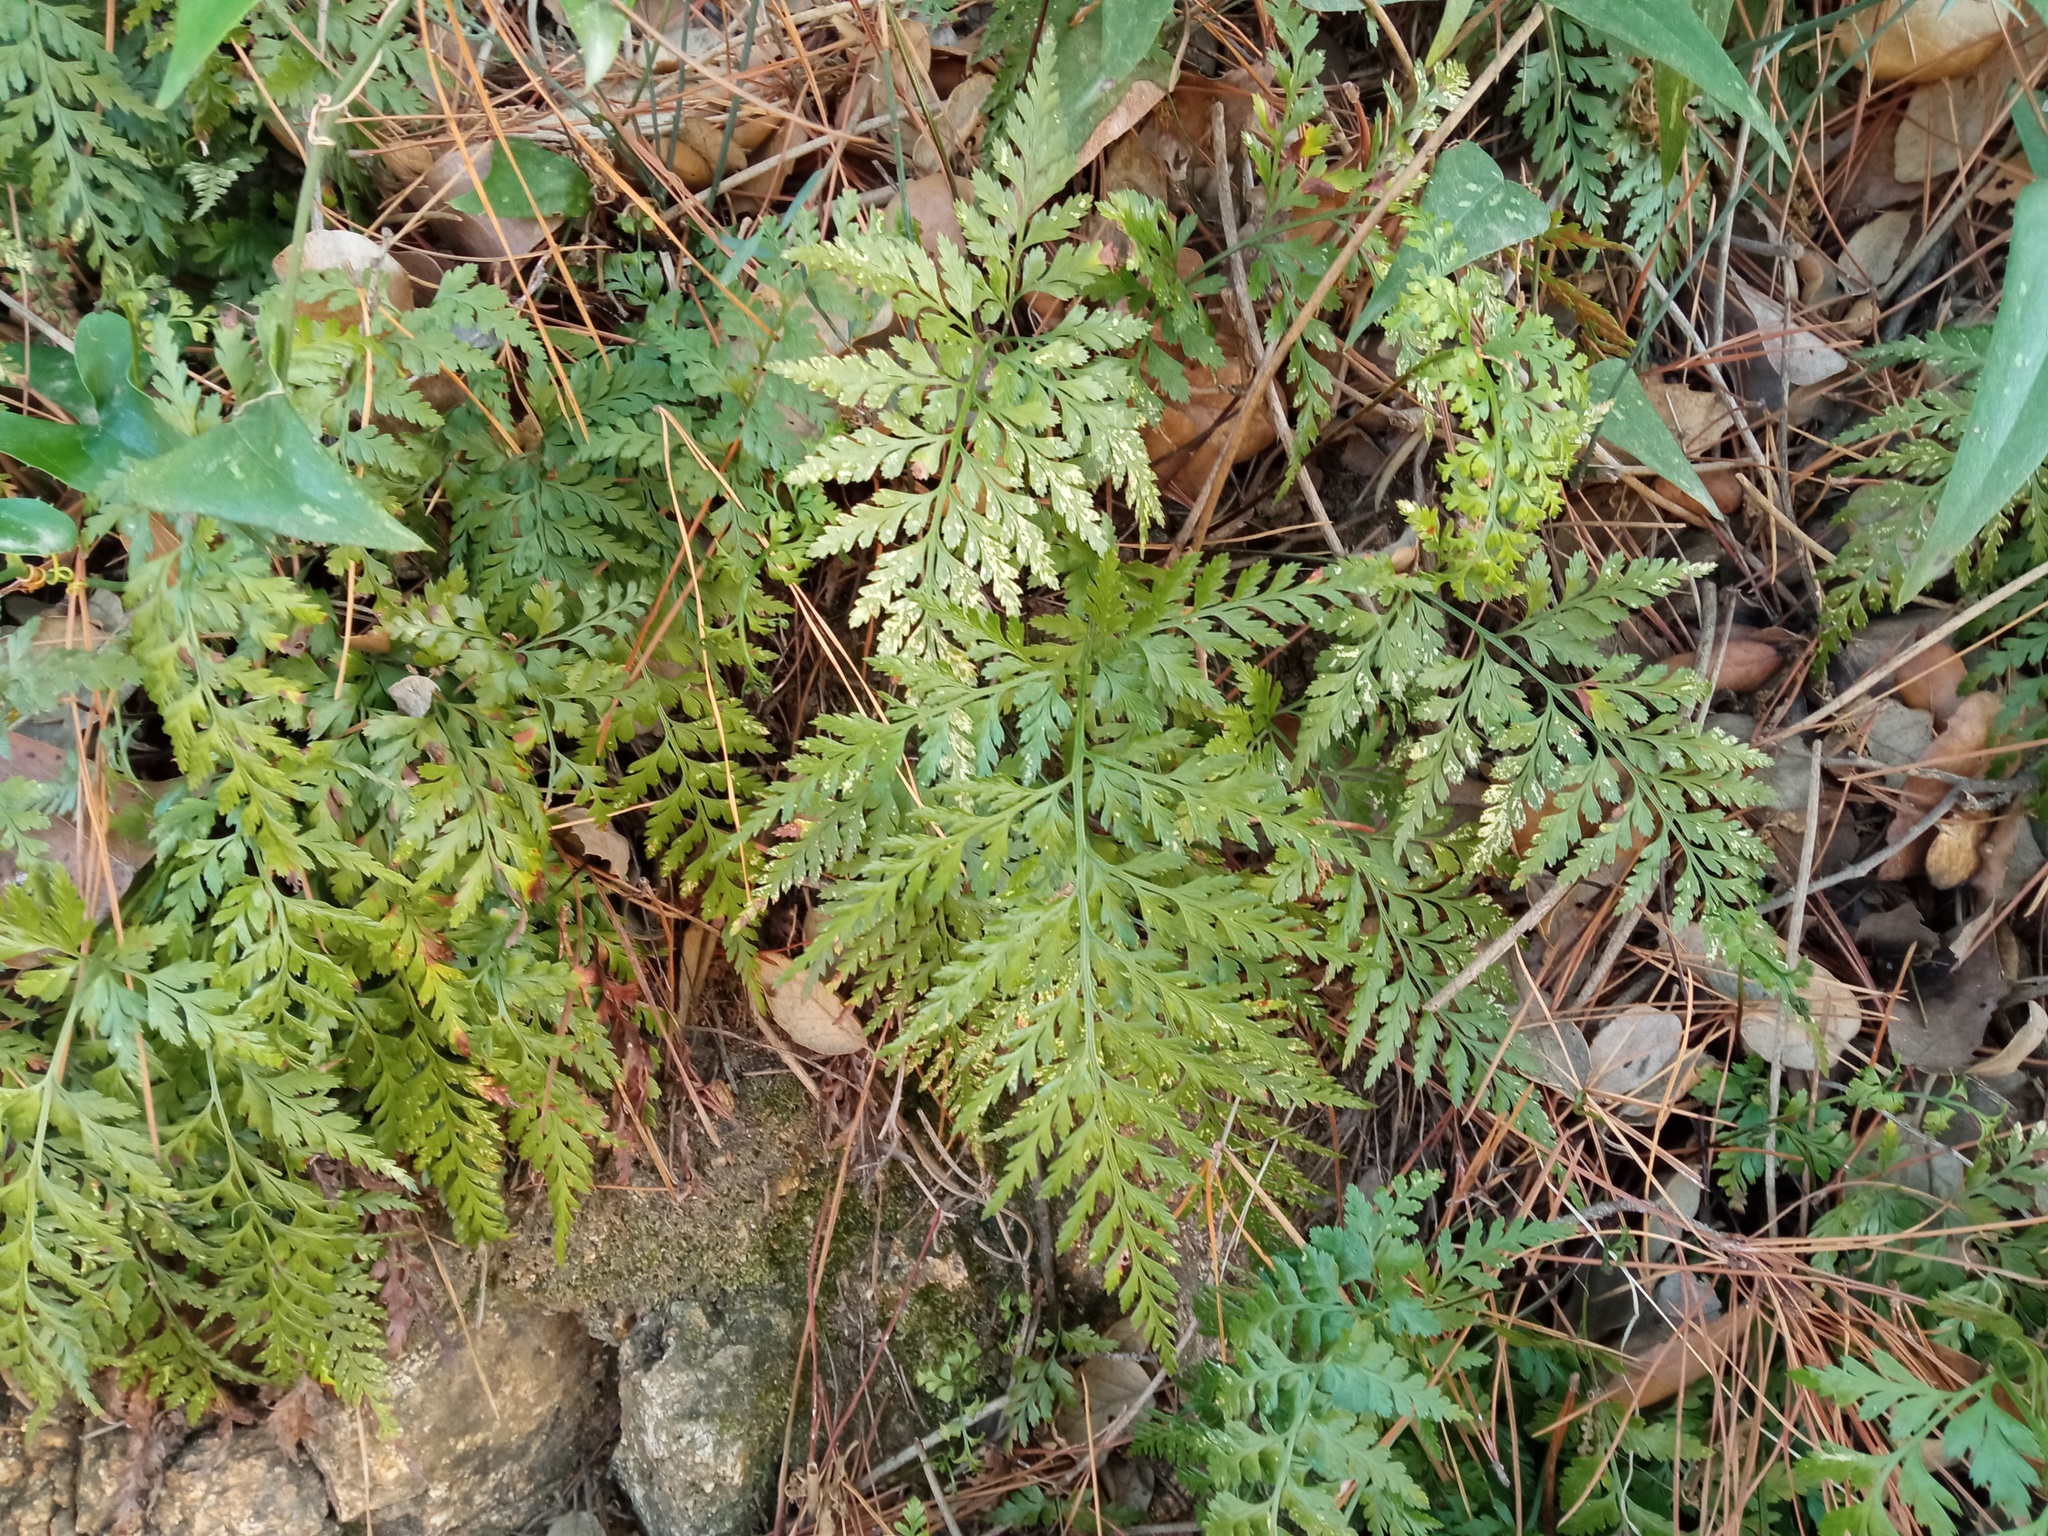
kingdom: Plantae
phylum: Tracheophyta
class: Polypodiopsida
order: Polypodiales
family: Aspleniaceae
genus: Asplenium
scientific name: Asplenium onopteris
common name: Irish spleenwort
